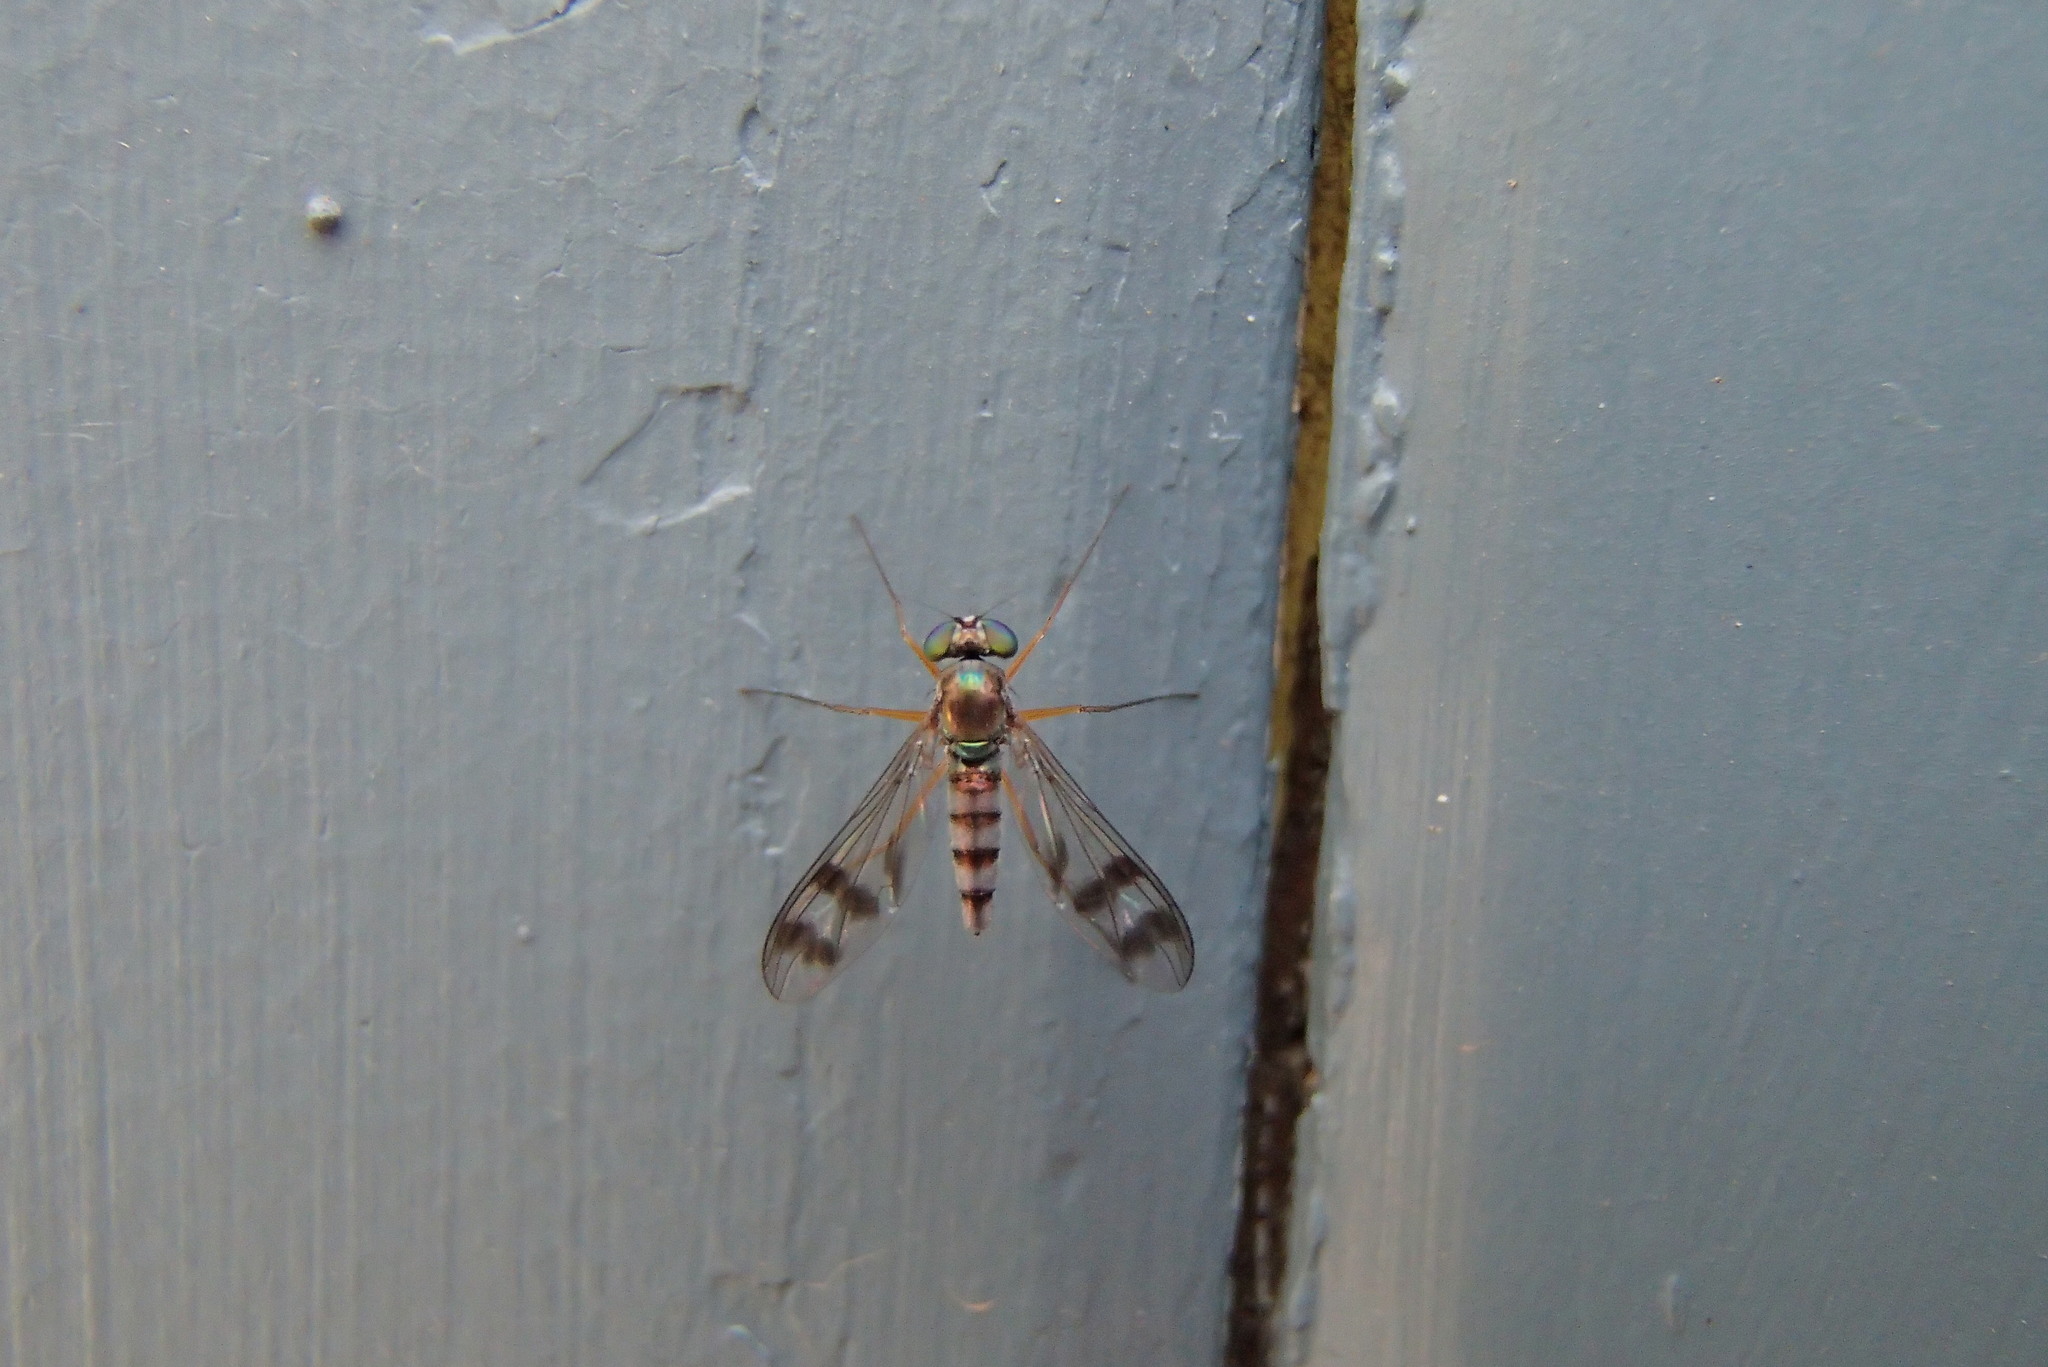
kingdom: Animalia
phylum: Arthropoda
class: Insecta
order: Diptera
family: Dolichopodidae
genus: Heteropsilopus
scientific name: Heteropsilopus squamifer
